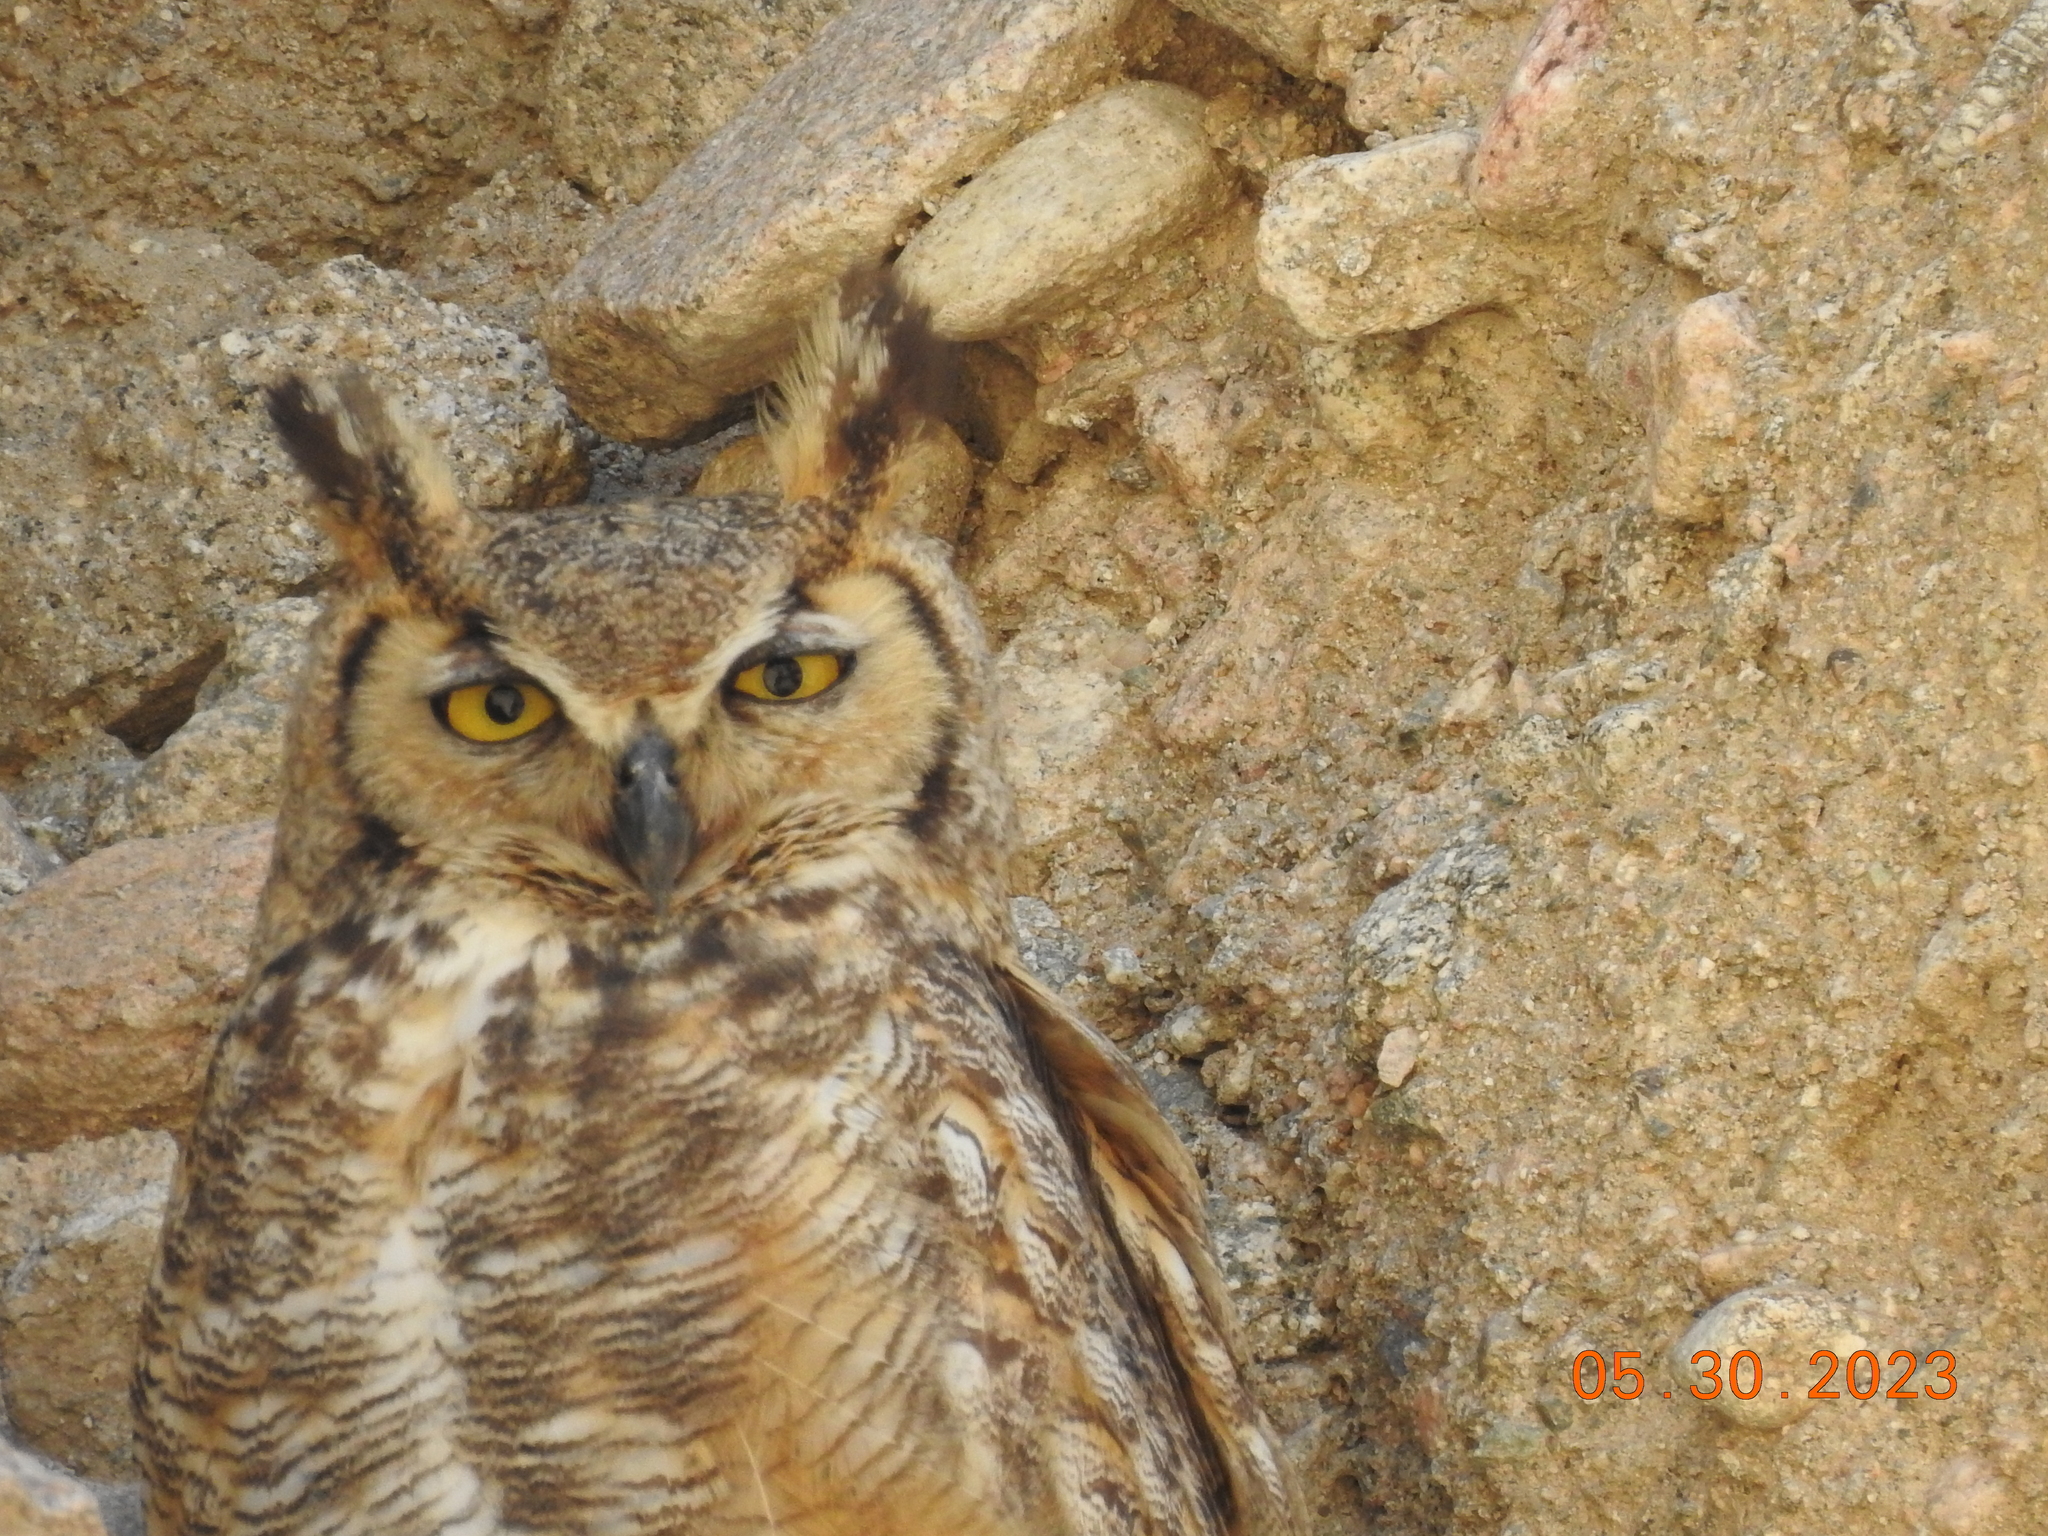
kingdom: Animalia
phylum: Chordata
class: Aves
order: Strigiformes
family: Strigidae
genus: Bubo
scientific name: Bubo virginianus
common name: Great horned owl
